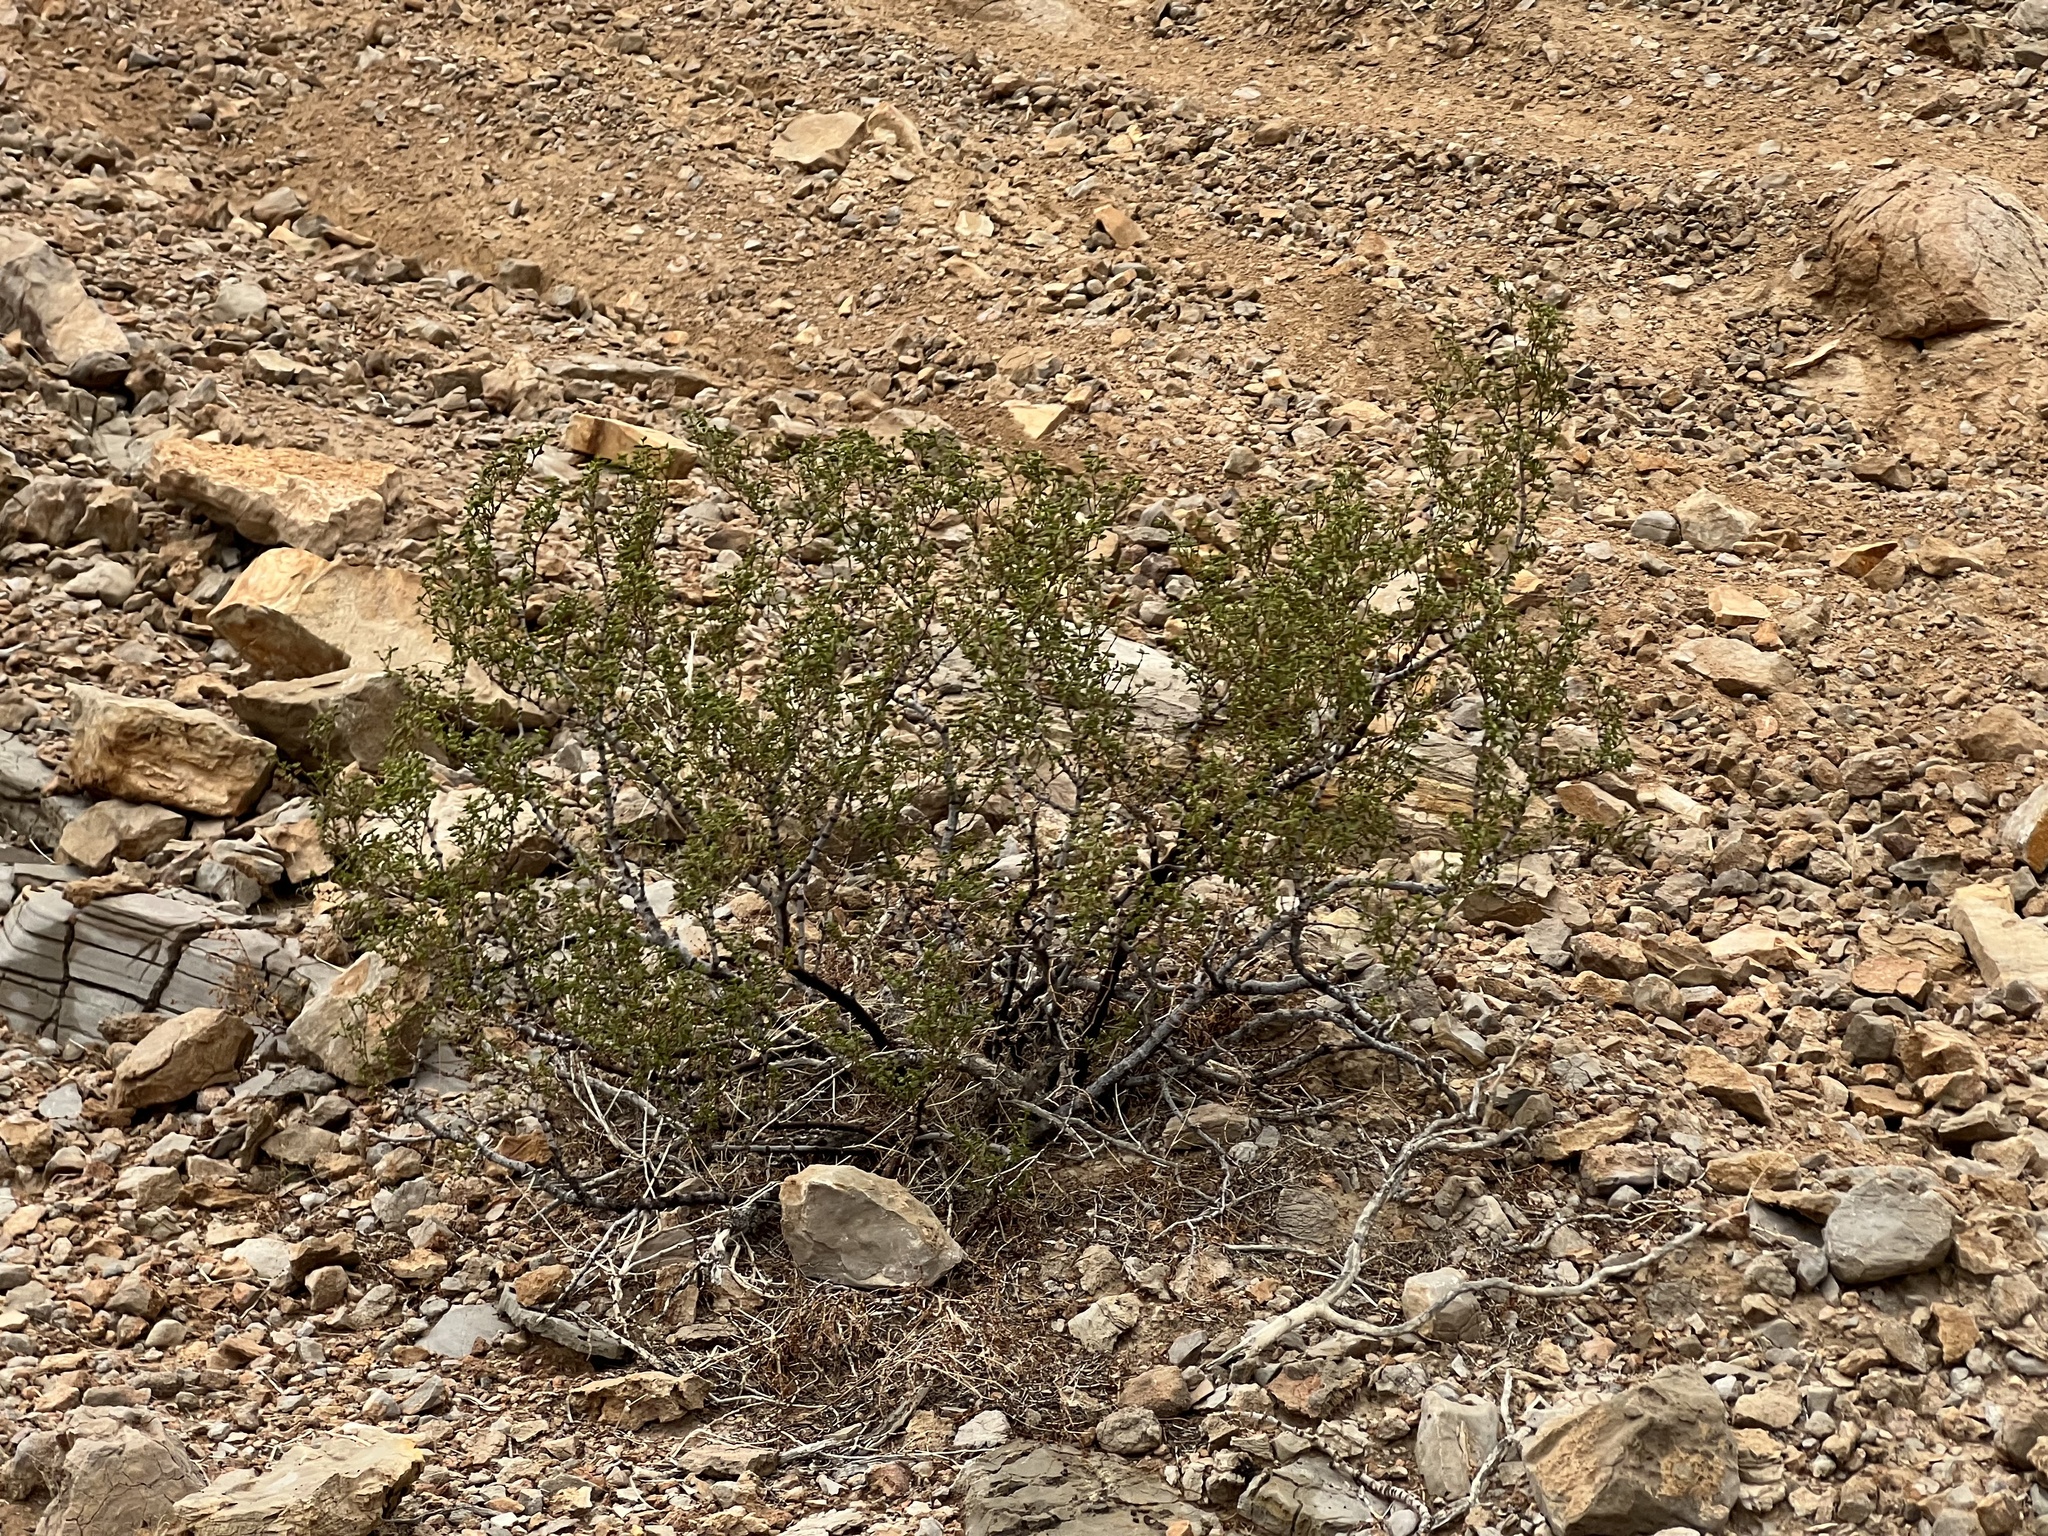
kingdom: Plantae
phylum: Tracheophyta
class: Magnoliopsida
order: Zygophyllales
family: Zygophyllaceae
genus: Larrea
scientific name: Larrea tridentata
